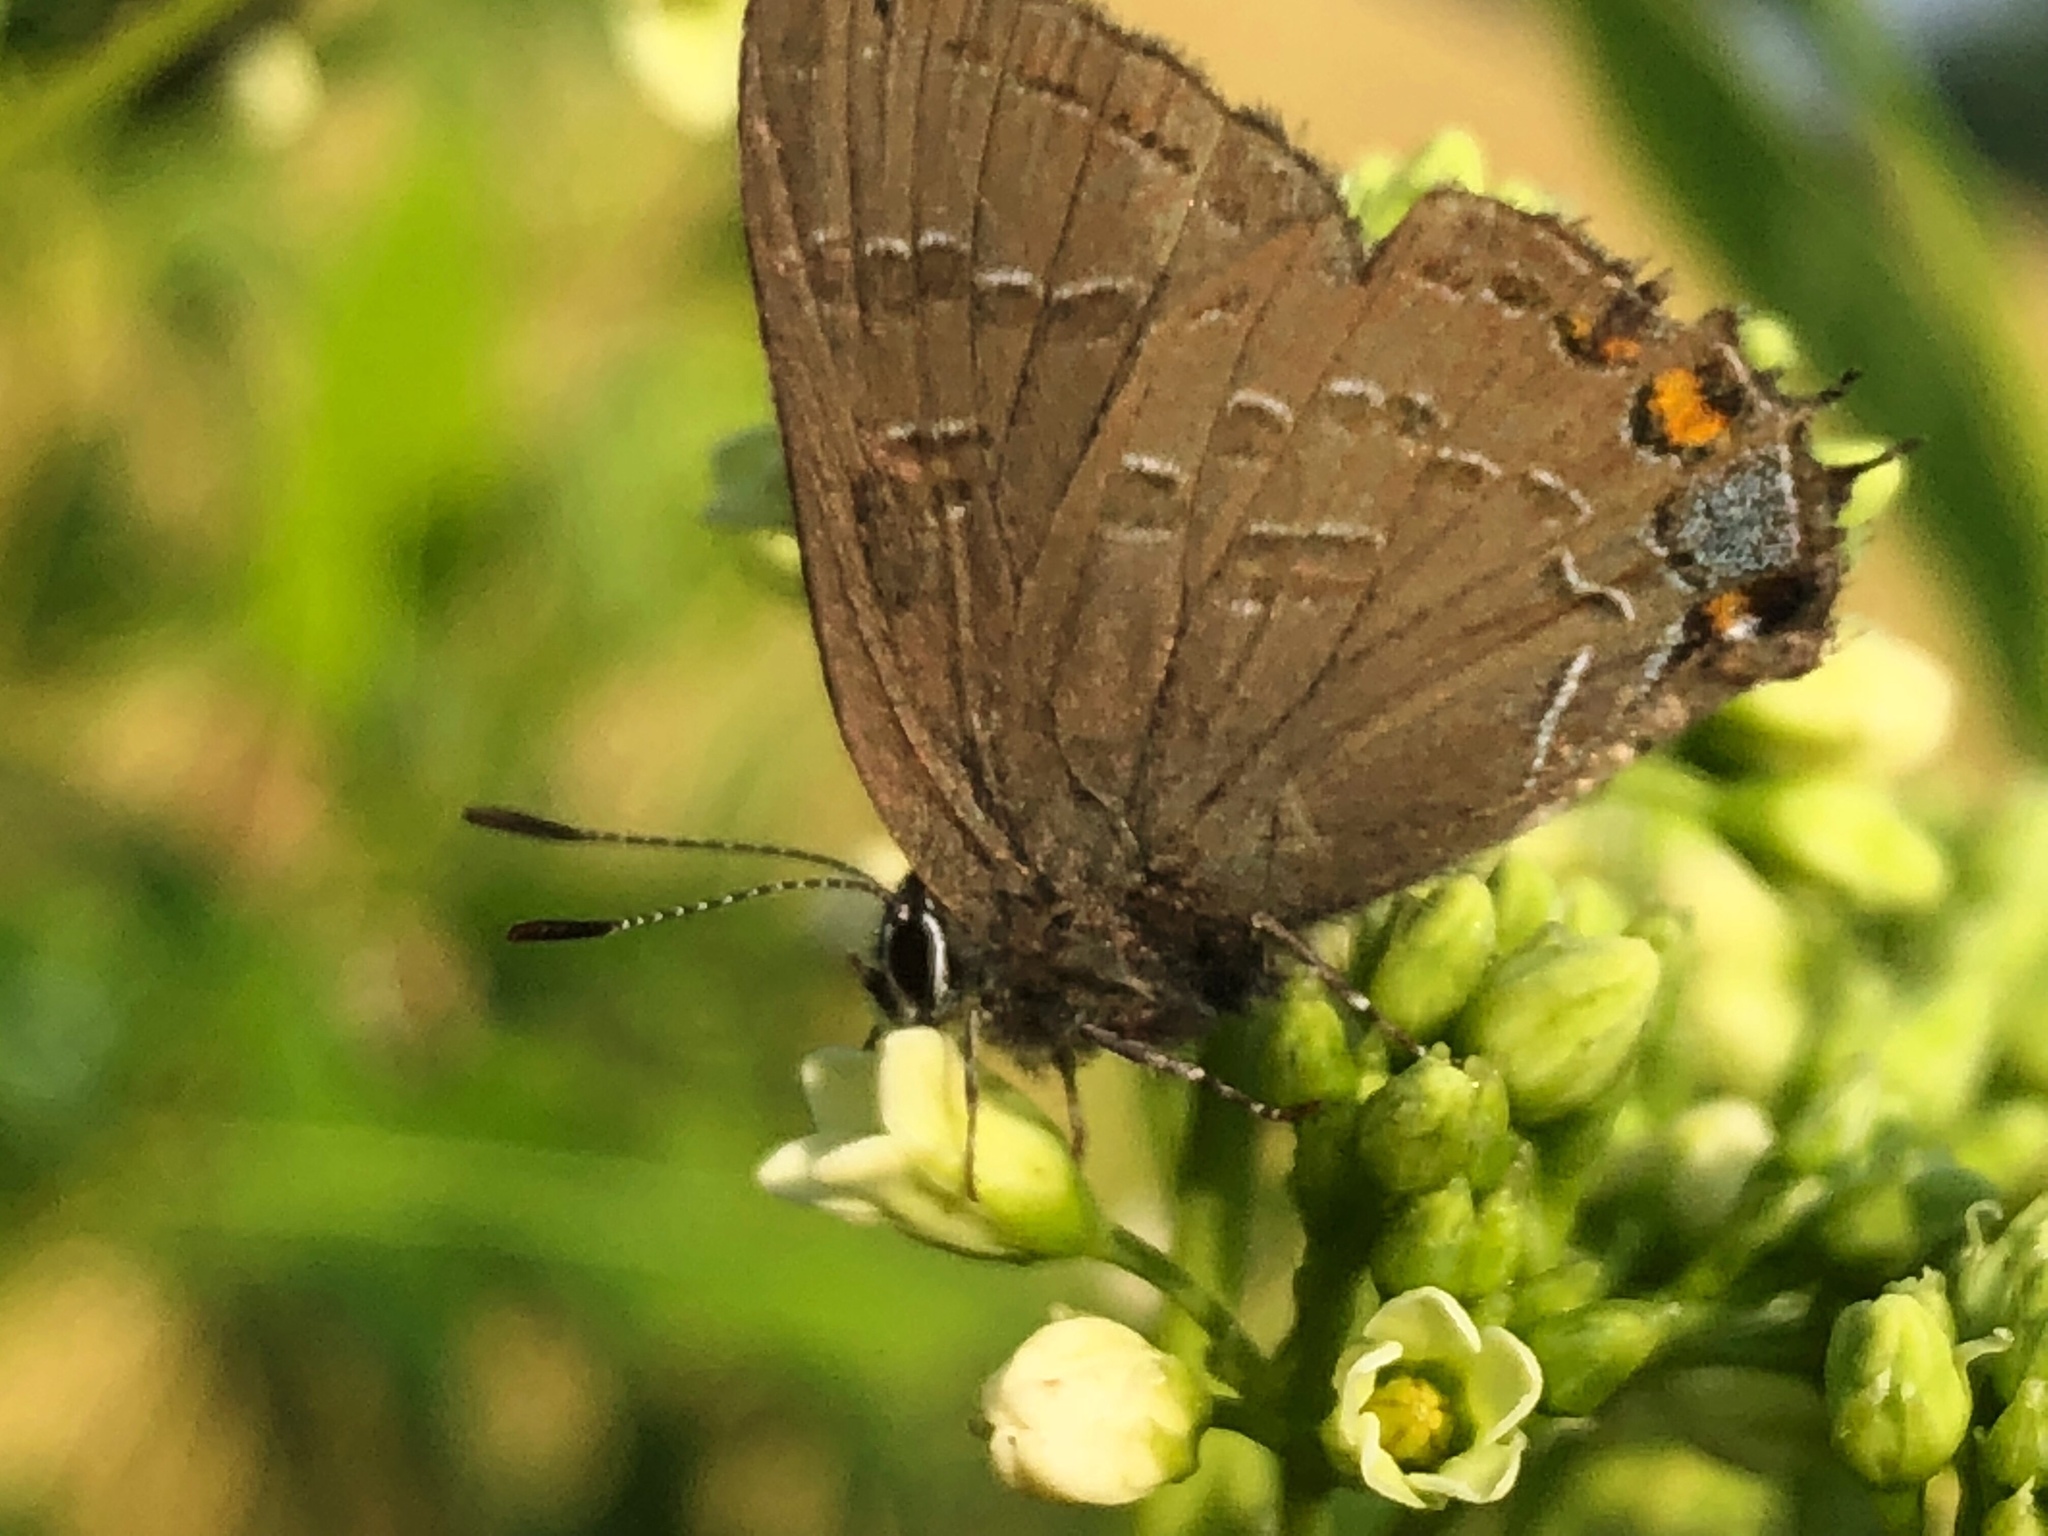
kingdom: Animalia
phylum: Arthropoda
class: Insecta
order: Lepidoptera
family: Lycaenidae
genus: Satyrium
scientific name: Satyrium calanus
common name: Banded hairstreak
